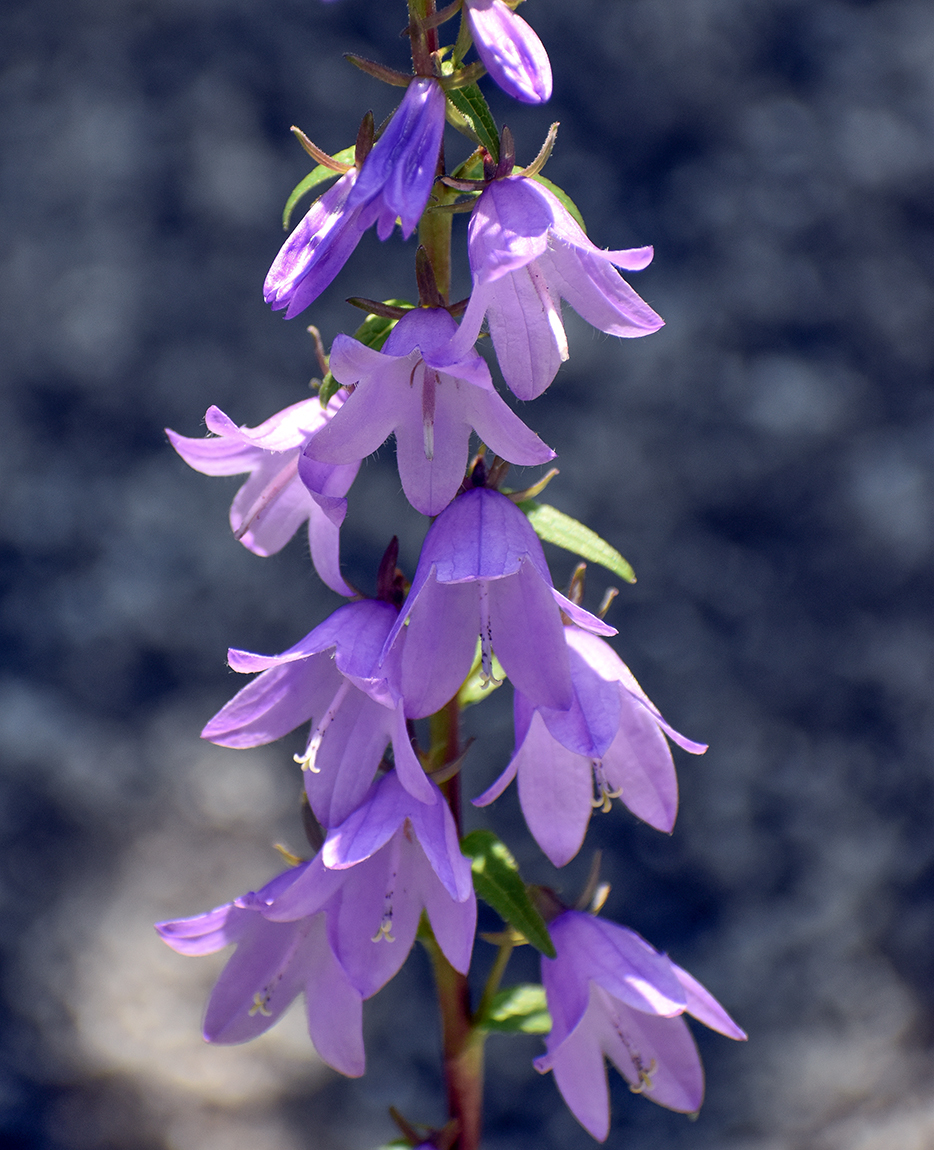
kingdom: Plantae
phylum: Tracheophyta
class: Magnoliopsida
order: Asterales
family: Campanulaceae
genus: Campanula
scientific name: Campanula rapunculoides
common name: Creeping bellflower
